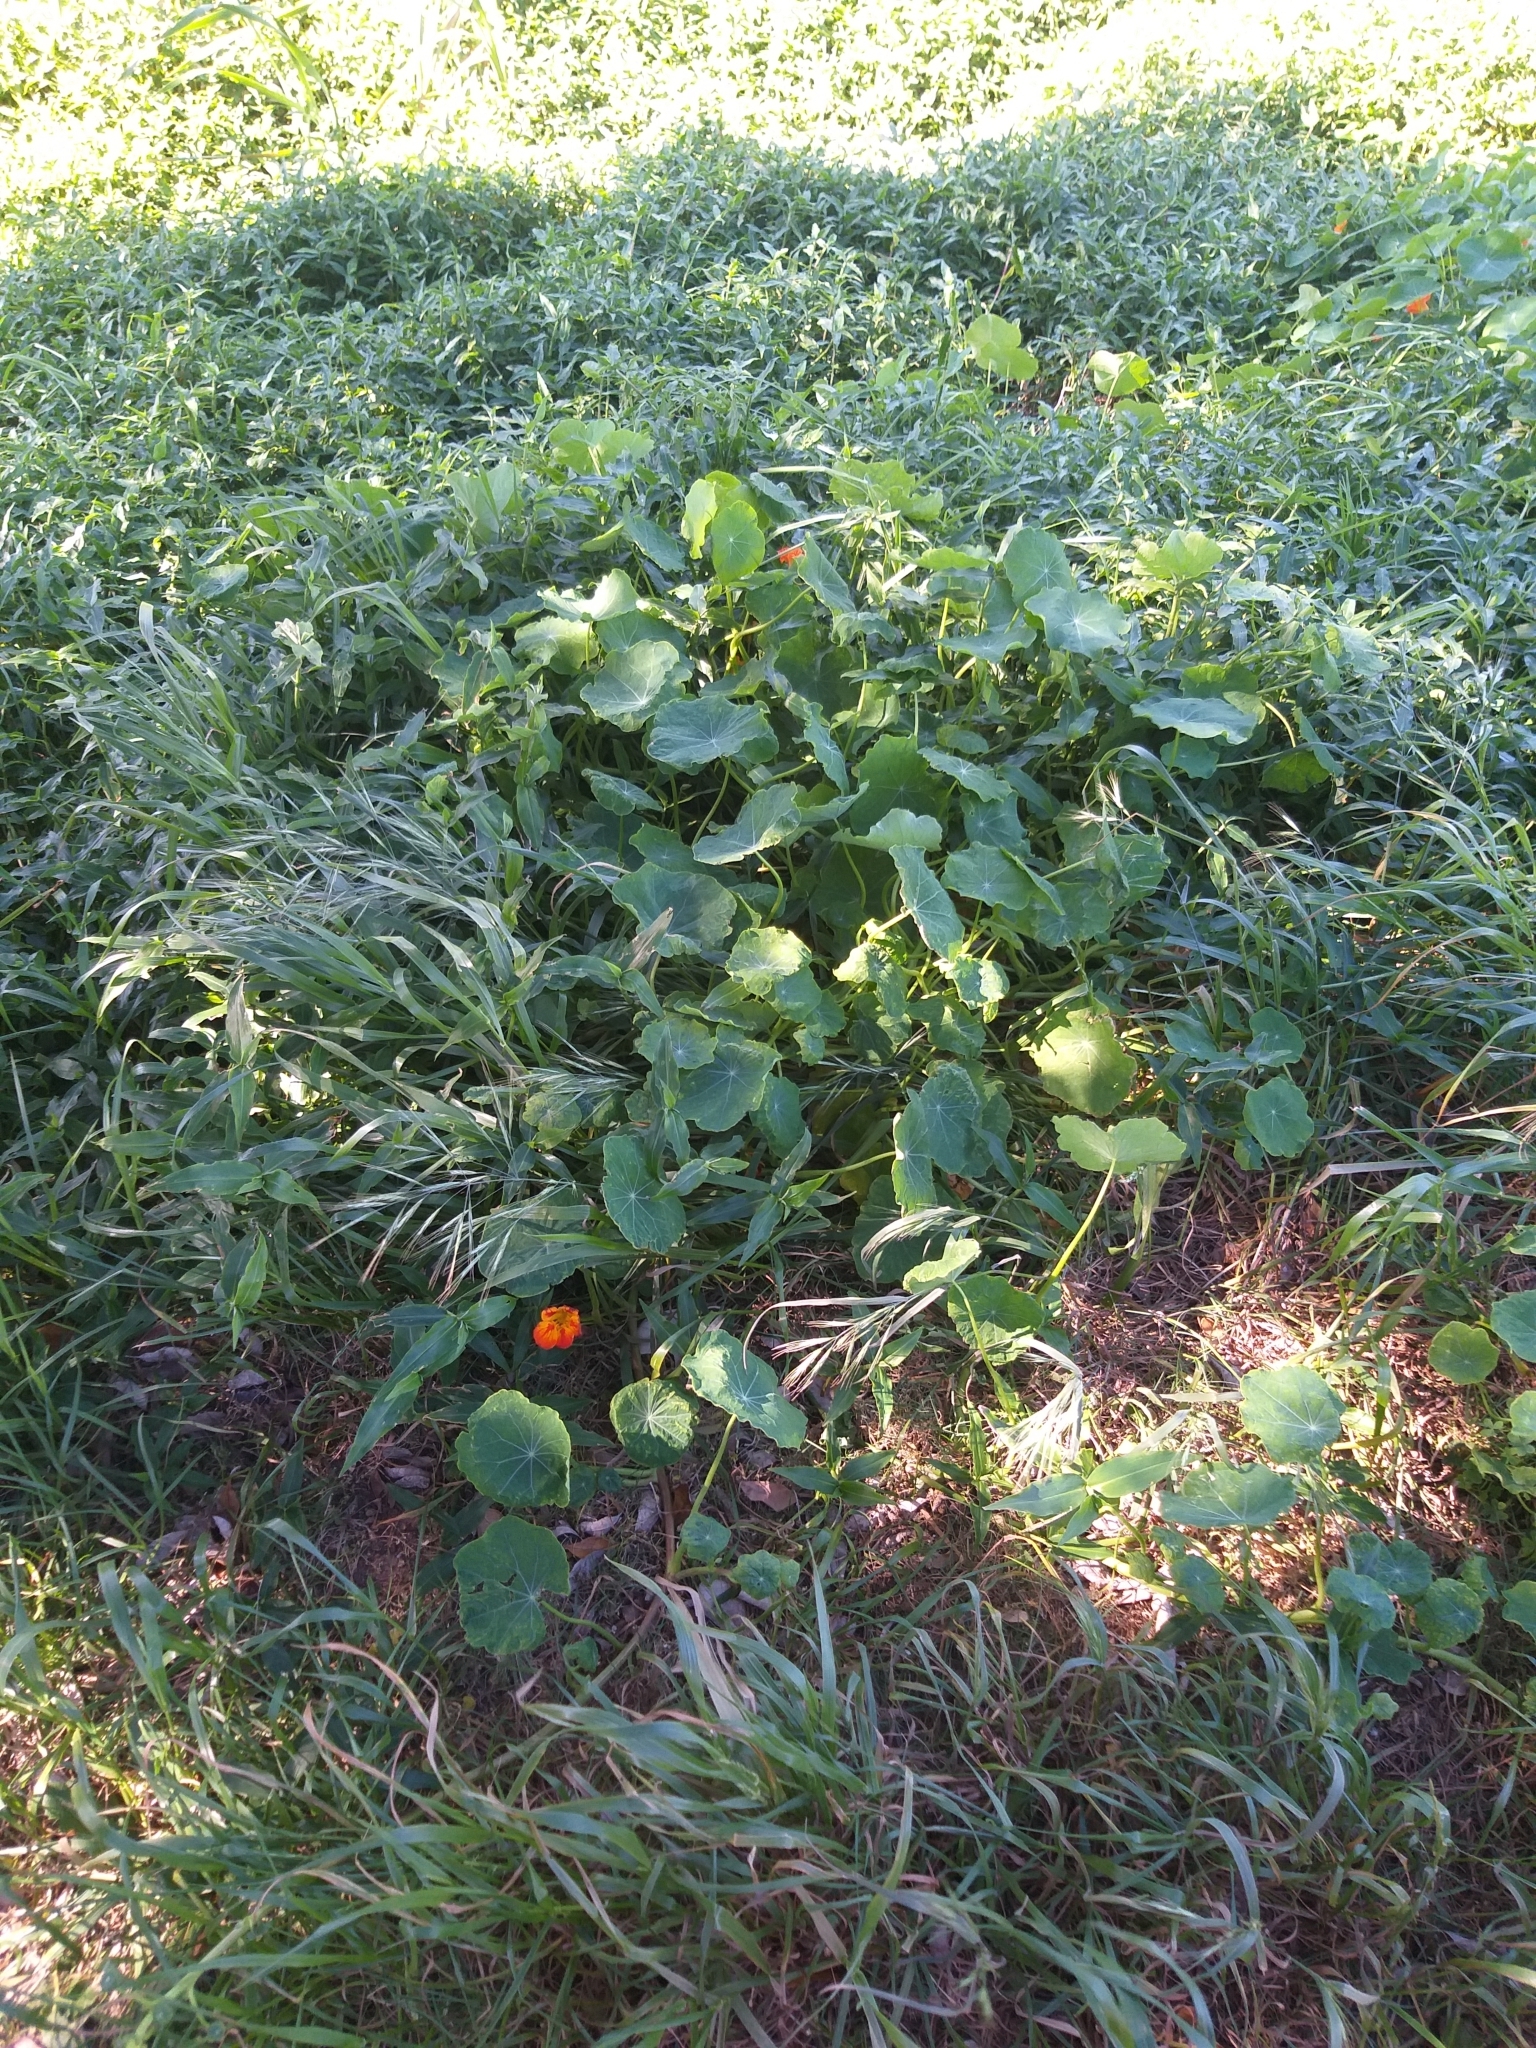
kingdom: Plantae
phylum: Tracheophyta
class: Magnoliopsida
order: Brassicales
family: Tropaeolaceae
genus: Tropaeolum
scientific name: Tropaeolum majus
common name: Nasturtium
